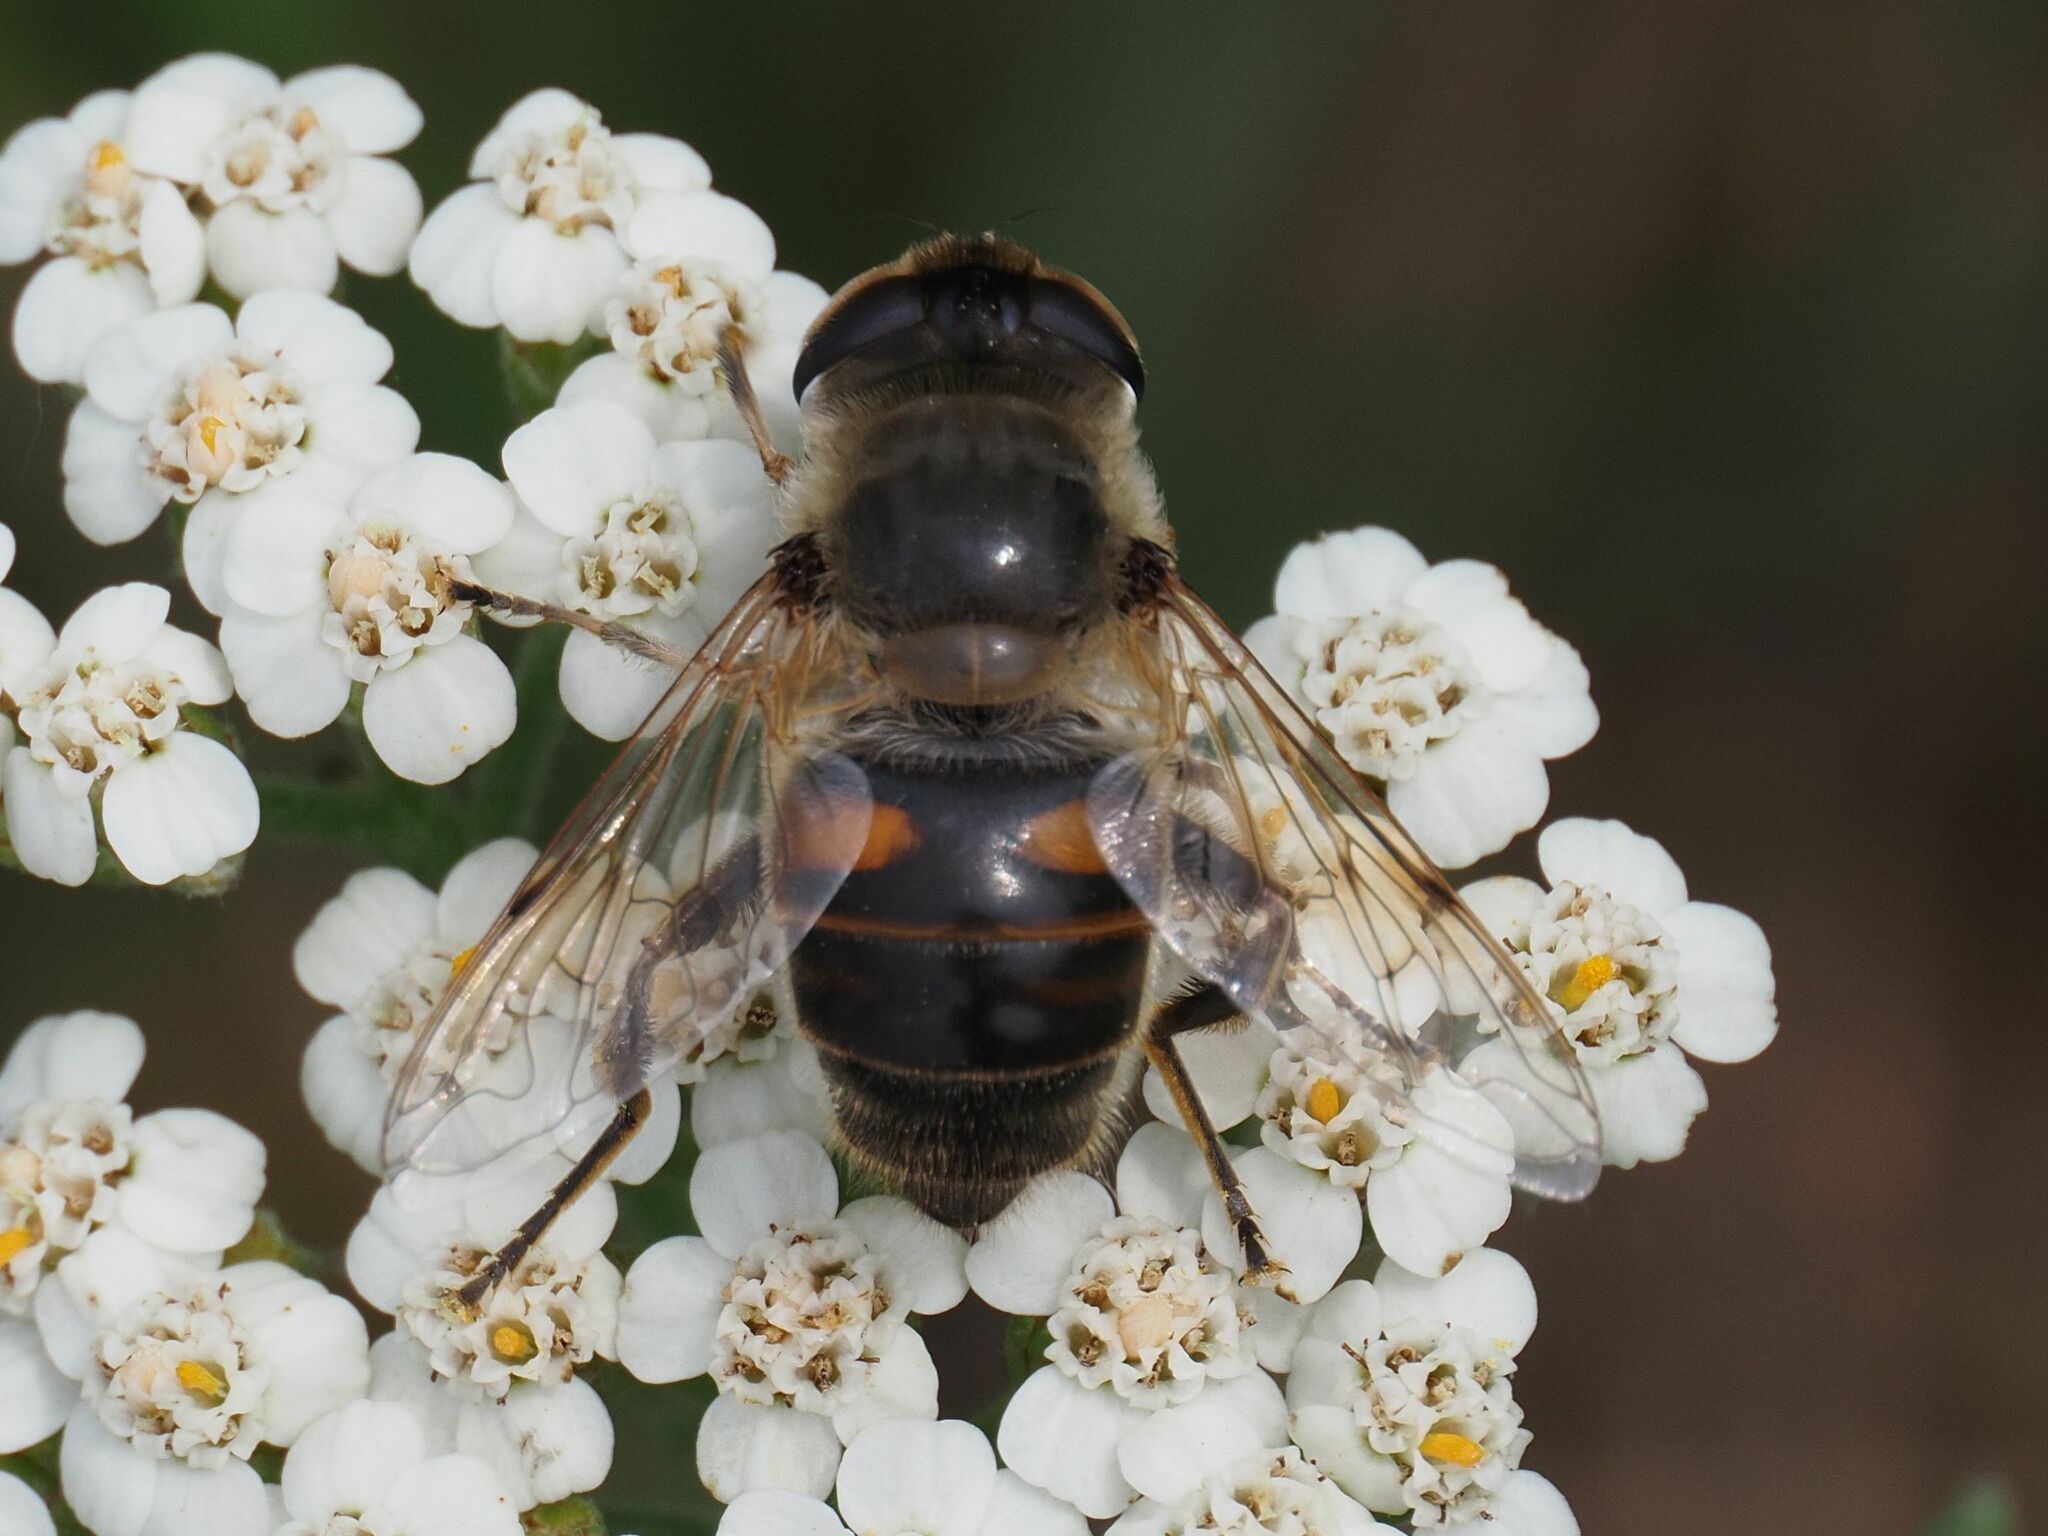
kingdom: Animalia
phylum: Arthropoda
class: Insecta
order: Diptera
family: Syrphidae
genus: Eristalis
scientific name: Eristalis tenax
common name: Drone fly
